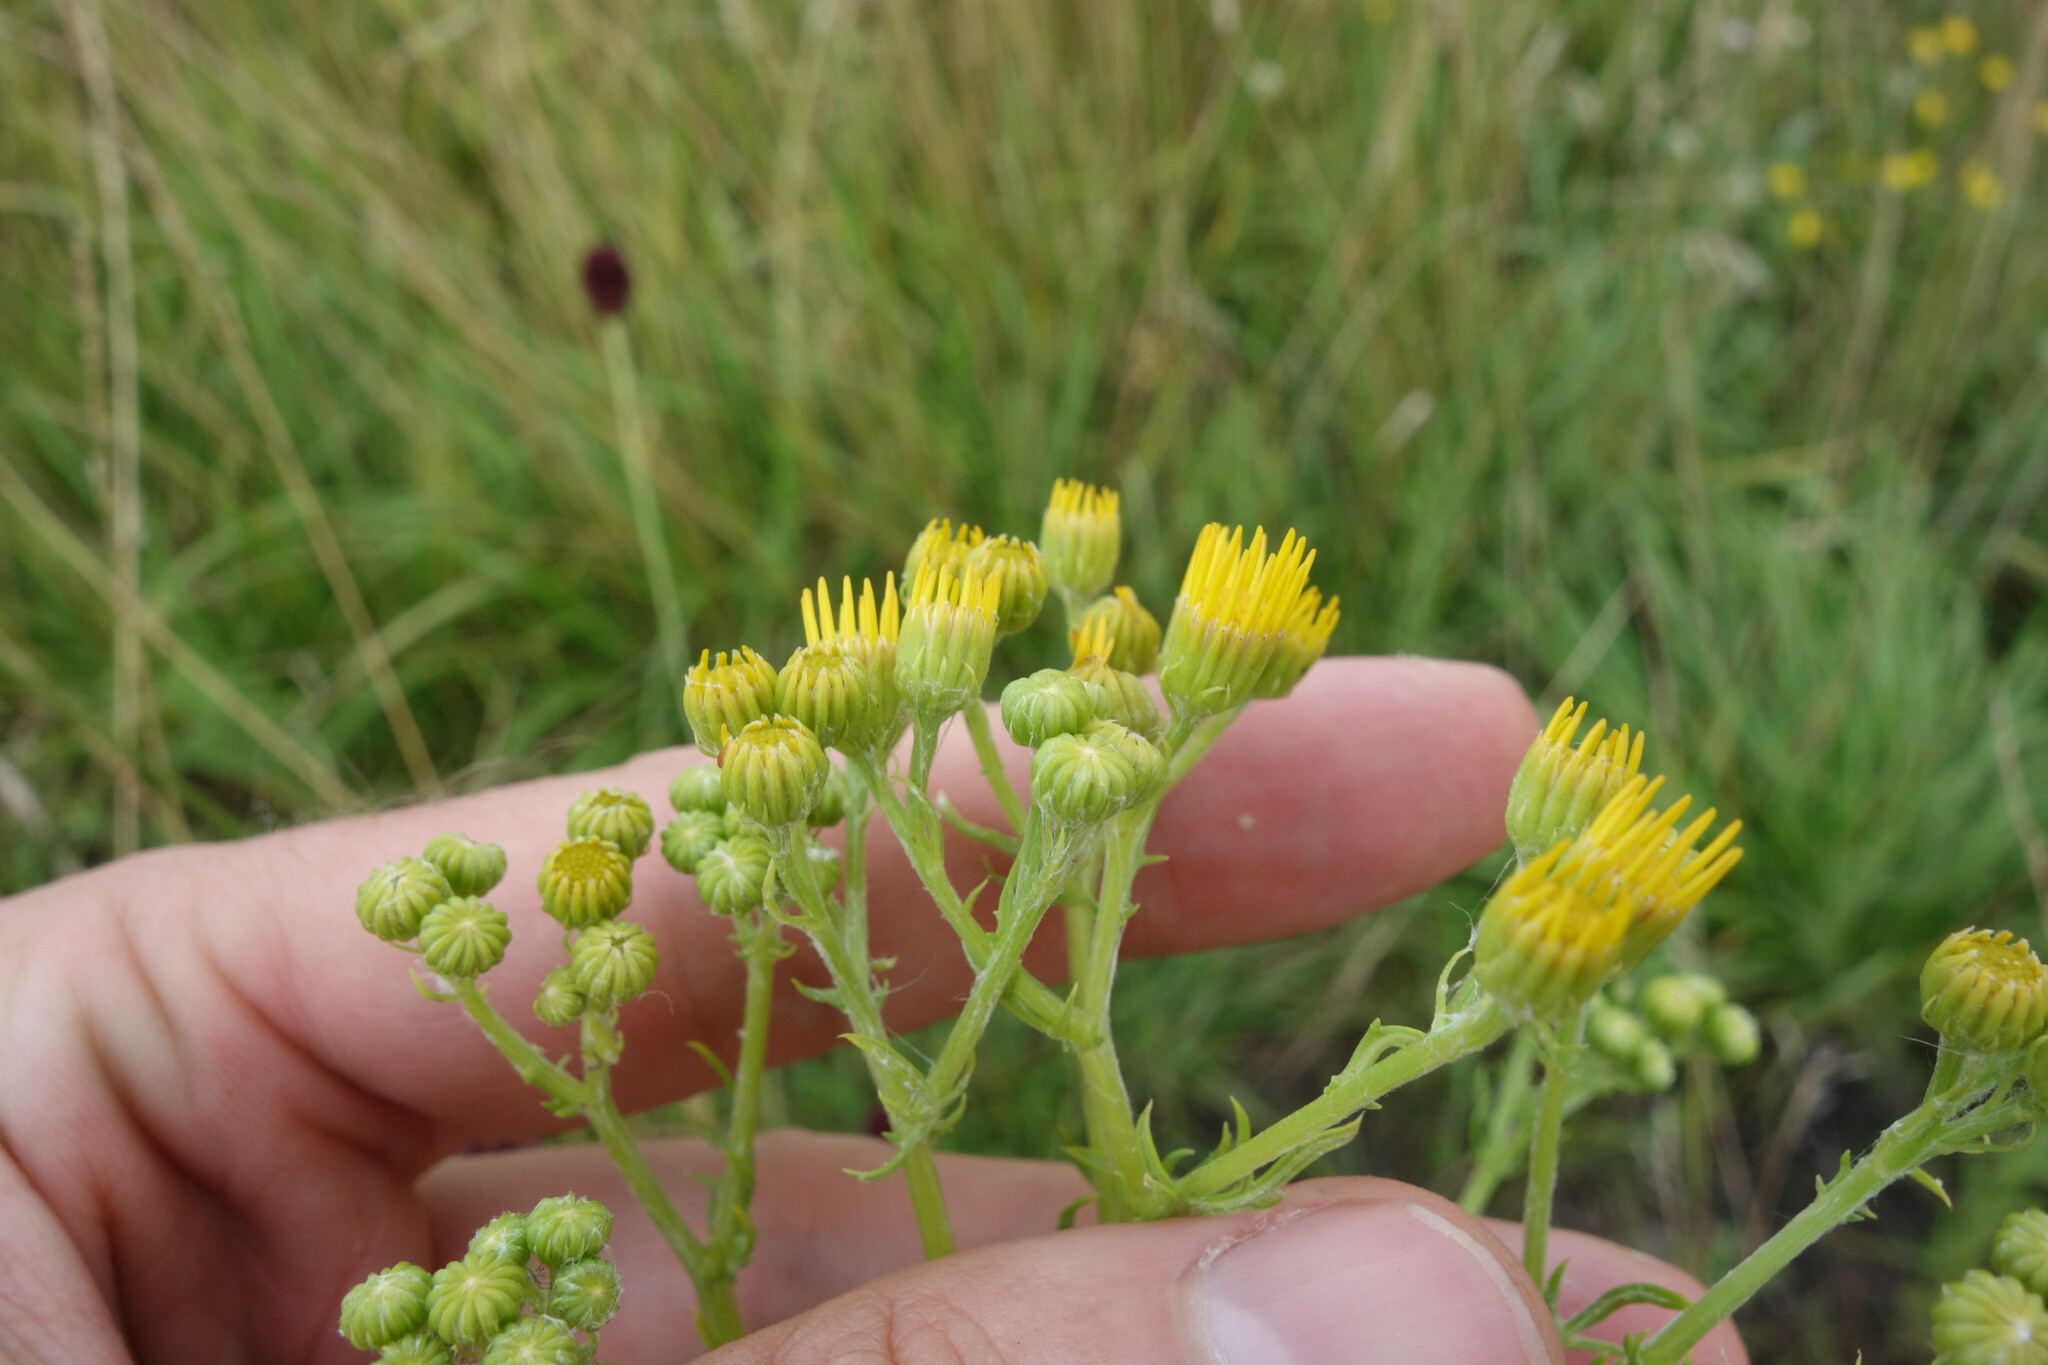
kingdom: Plantae
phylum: Tracheophyta
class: Magnoliopsida
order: Asterales
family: Asteraceae
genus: Jacobaea
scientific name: Jacobaea erucifolia
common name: Hoary ragwort
